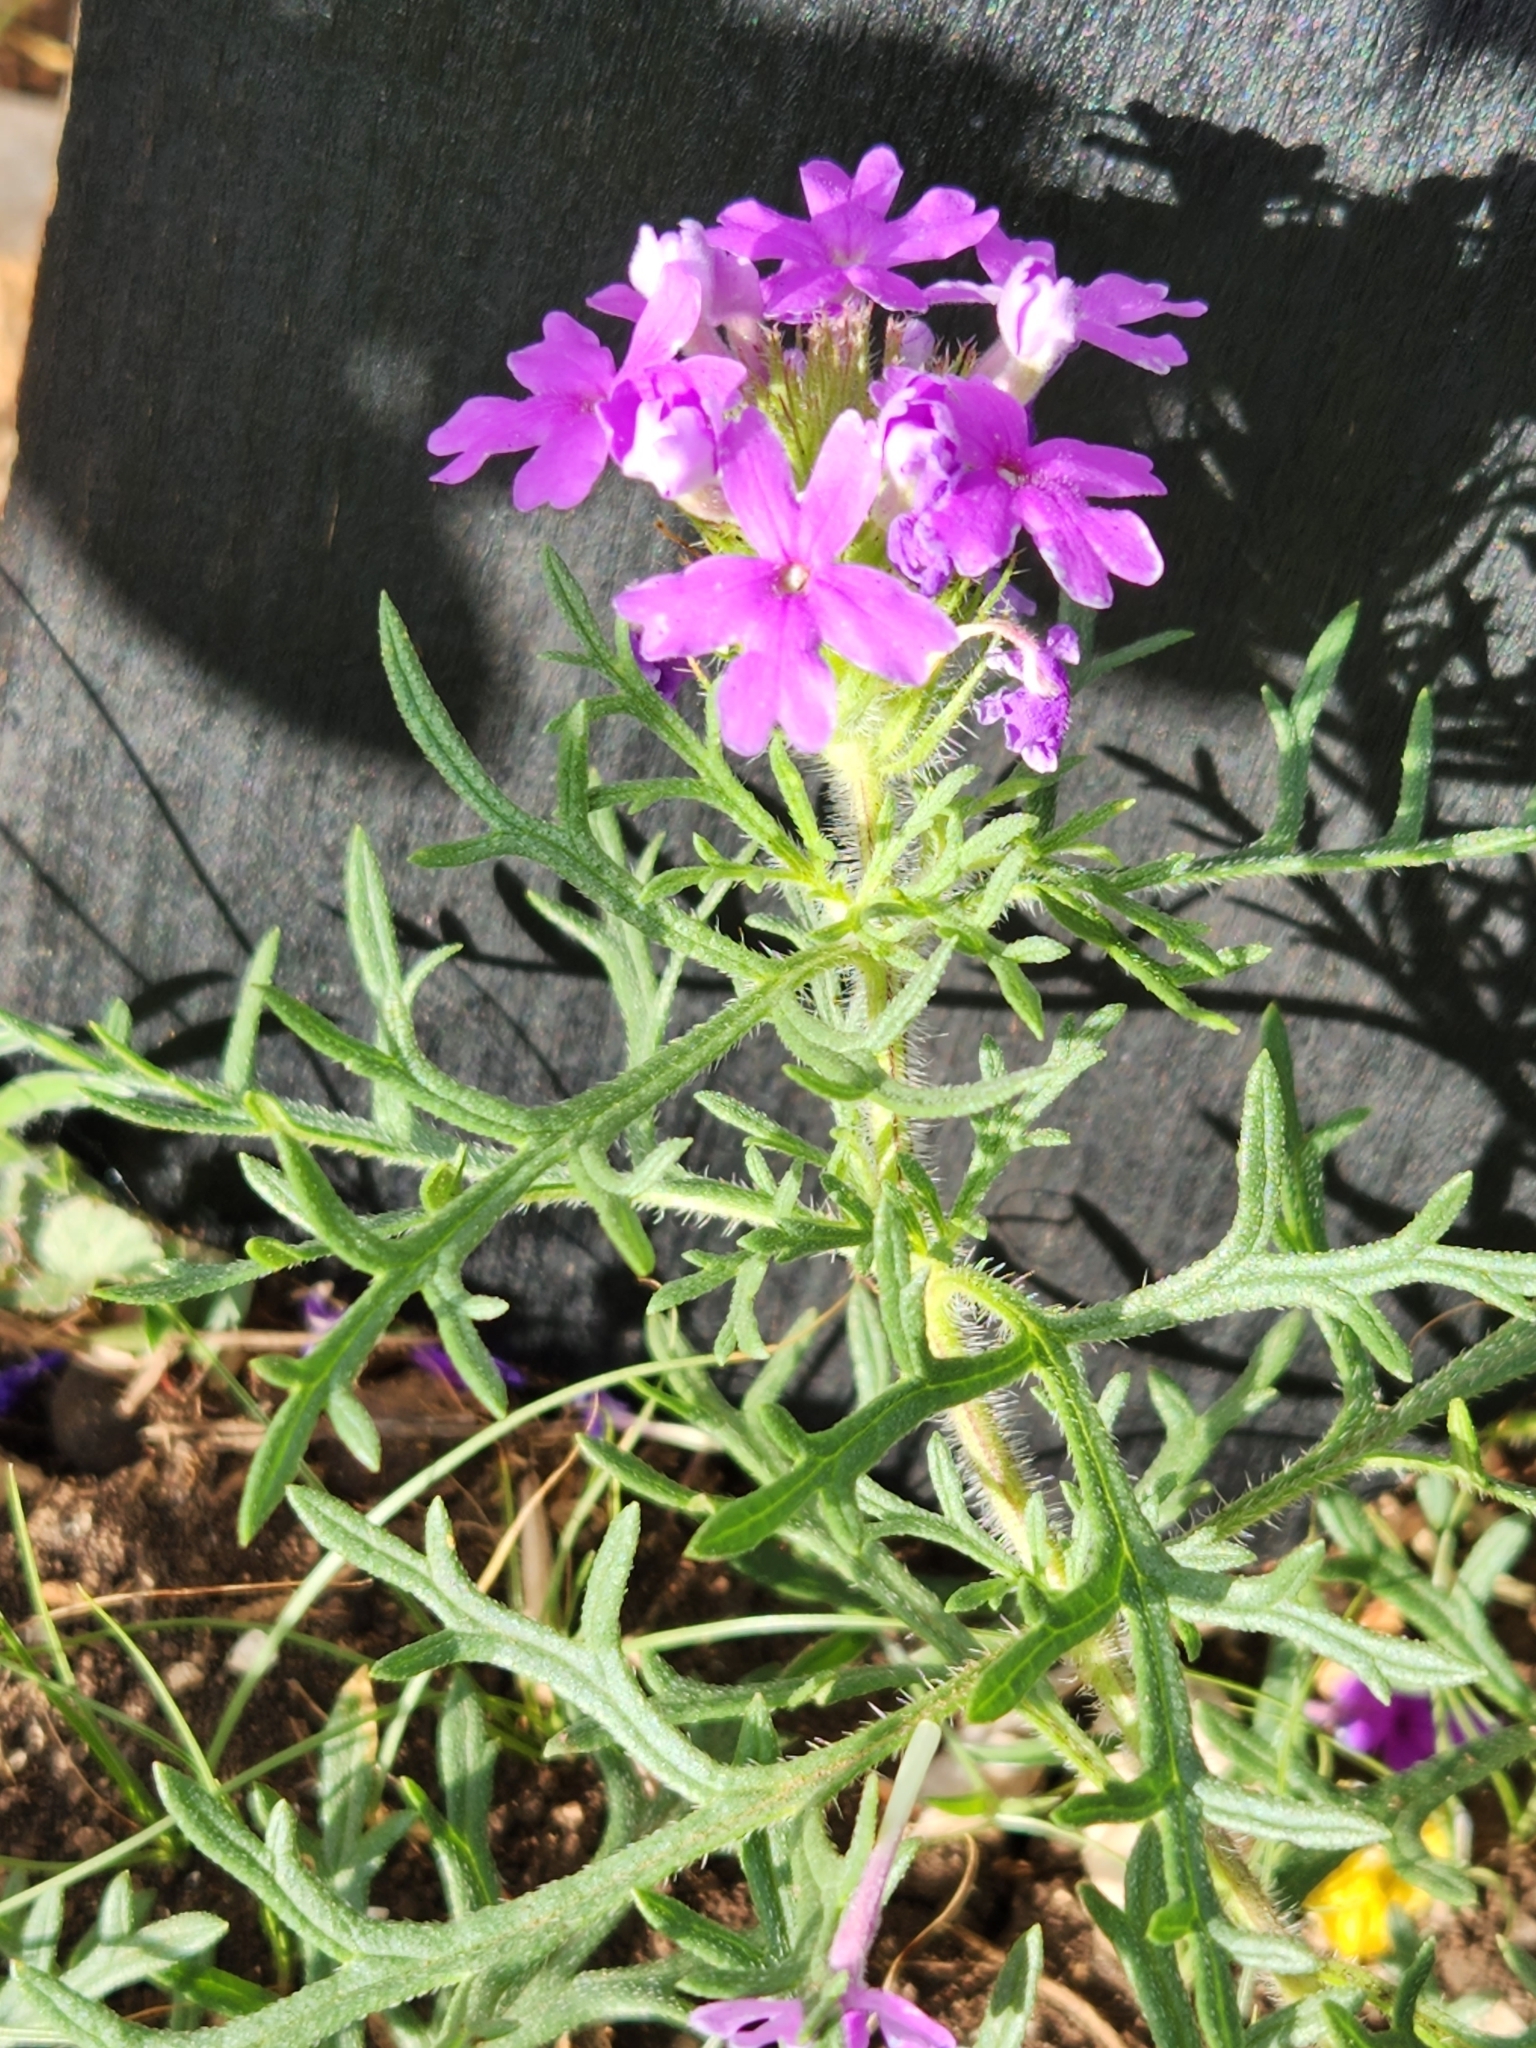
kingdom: Plantae
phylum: Tracheophyta
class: Magnoliopsida
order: Lamiales
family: Verbenaceae
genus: Verbena
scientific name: Verbena bipinnatifida
